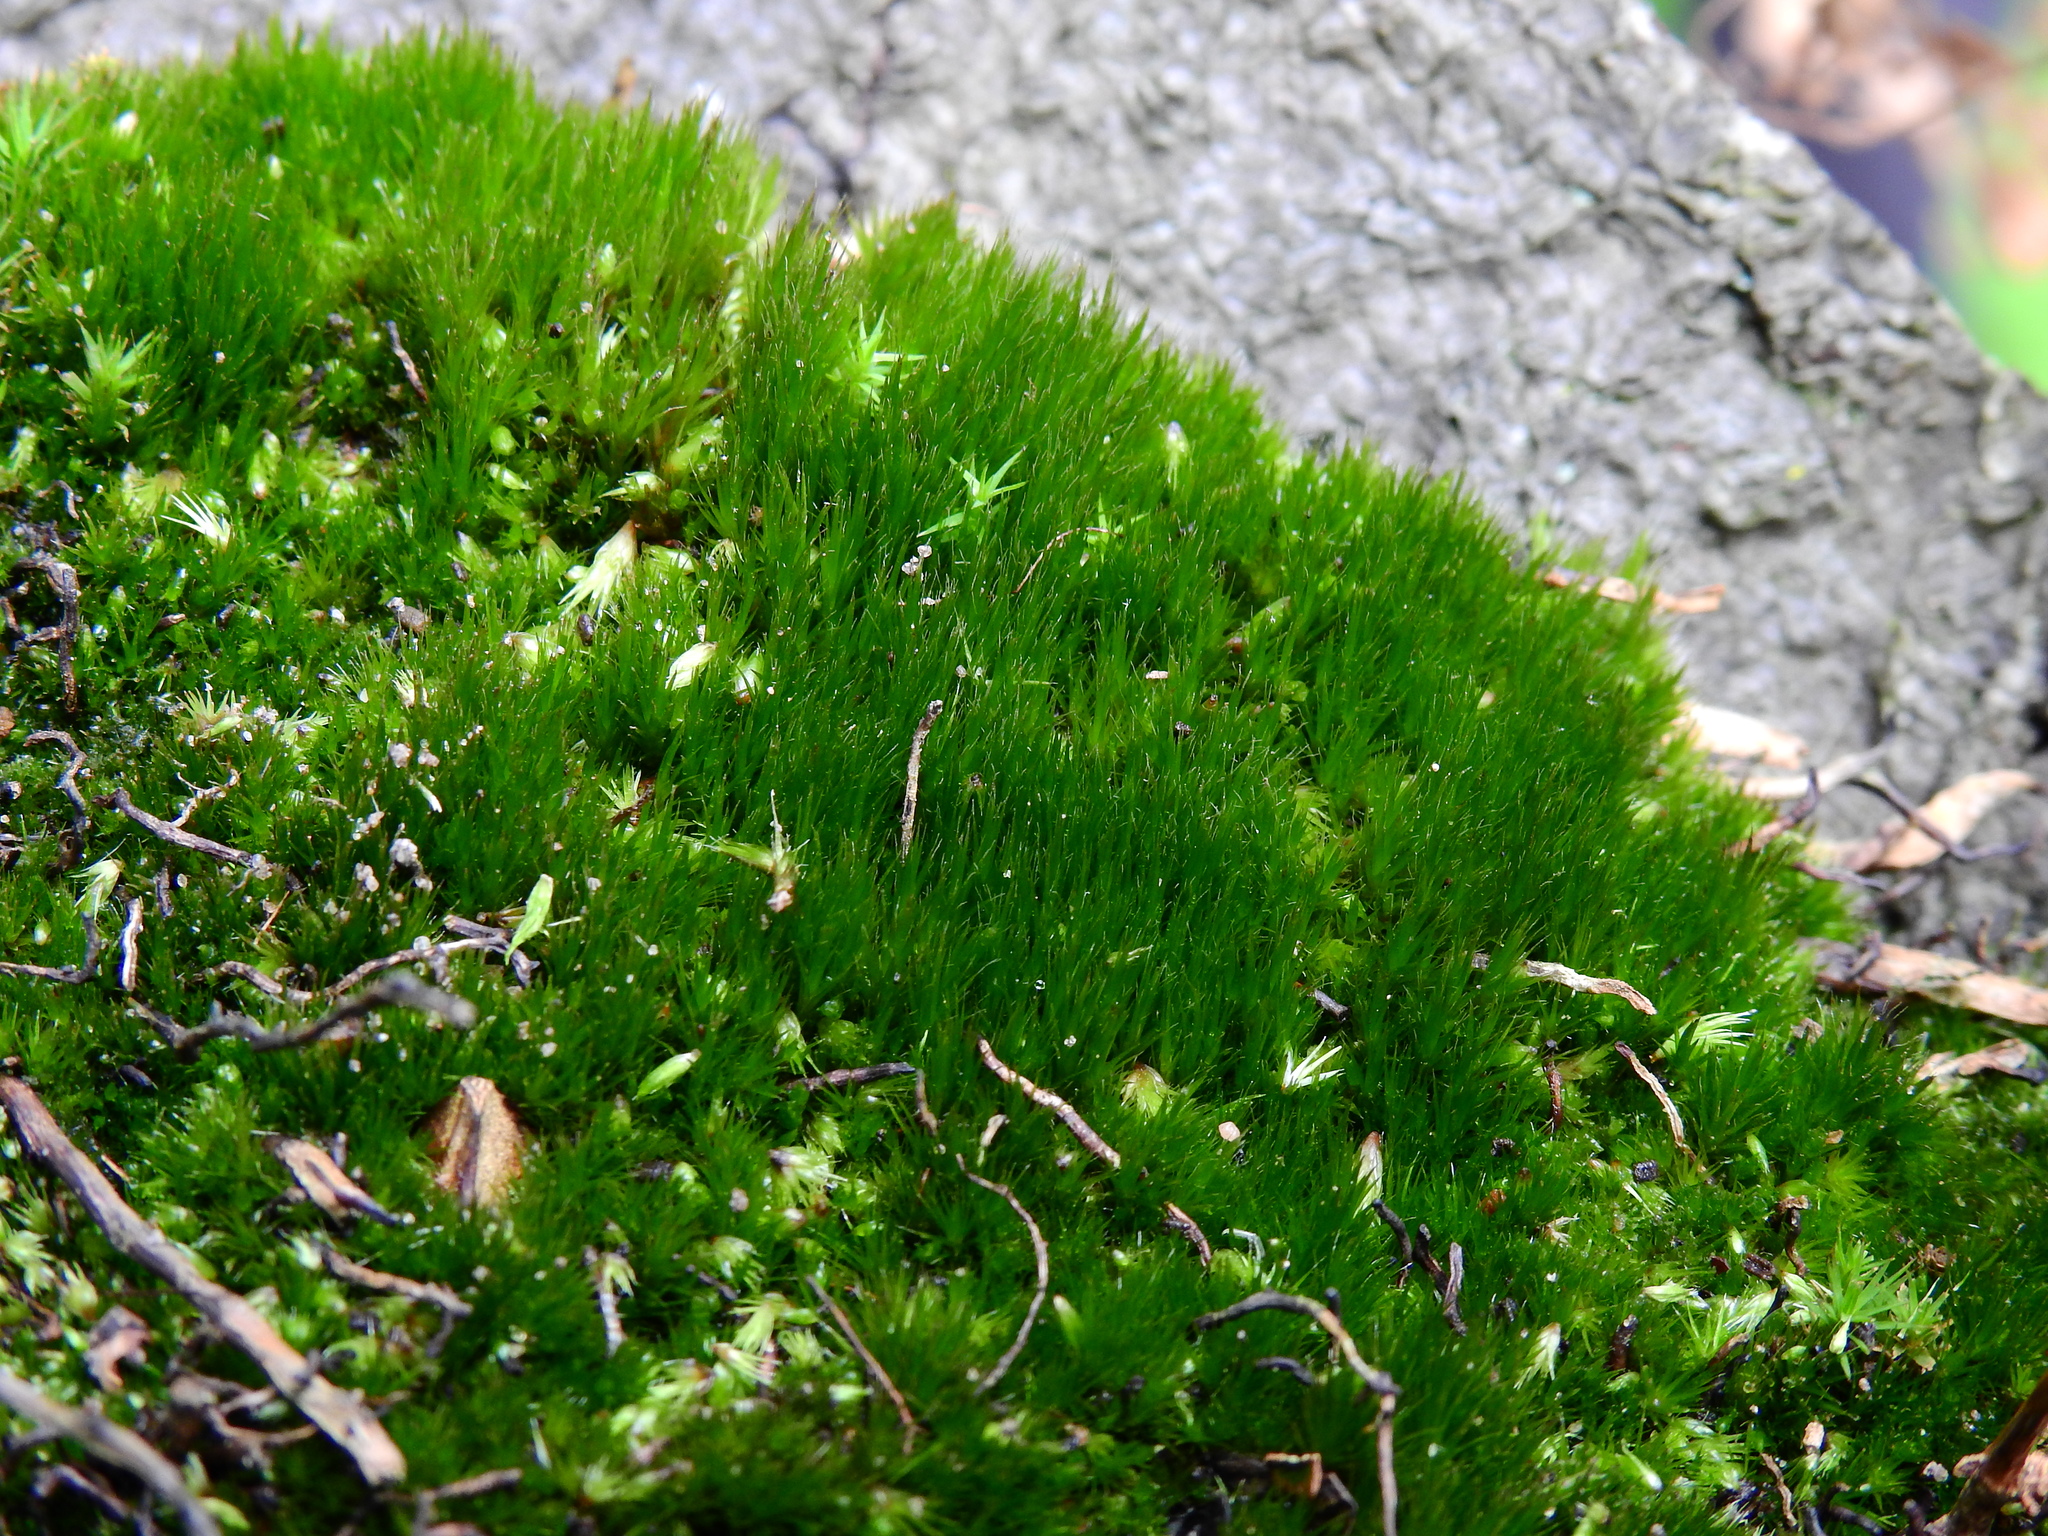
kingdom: Plantae
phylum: Bryophyta
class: Bryopsida
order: Dicranales
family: Leucobryaceae
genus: Campylopus
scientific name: Campylopus introflexus
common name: Heath star moss
